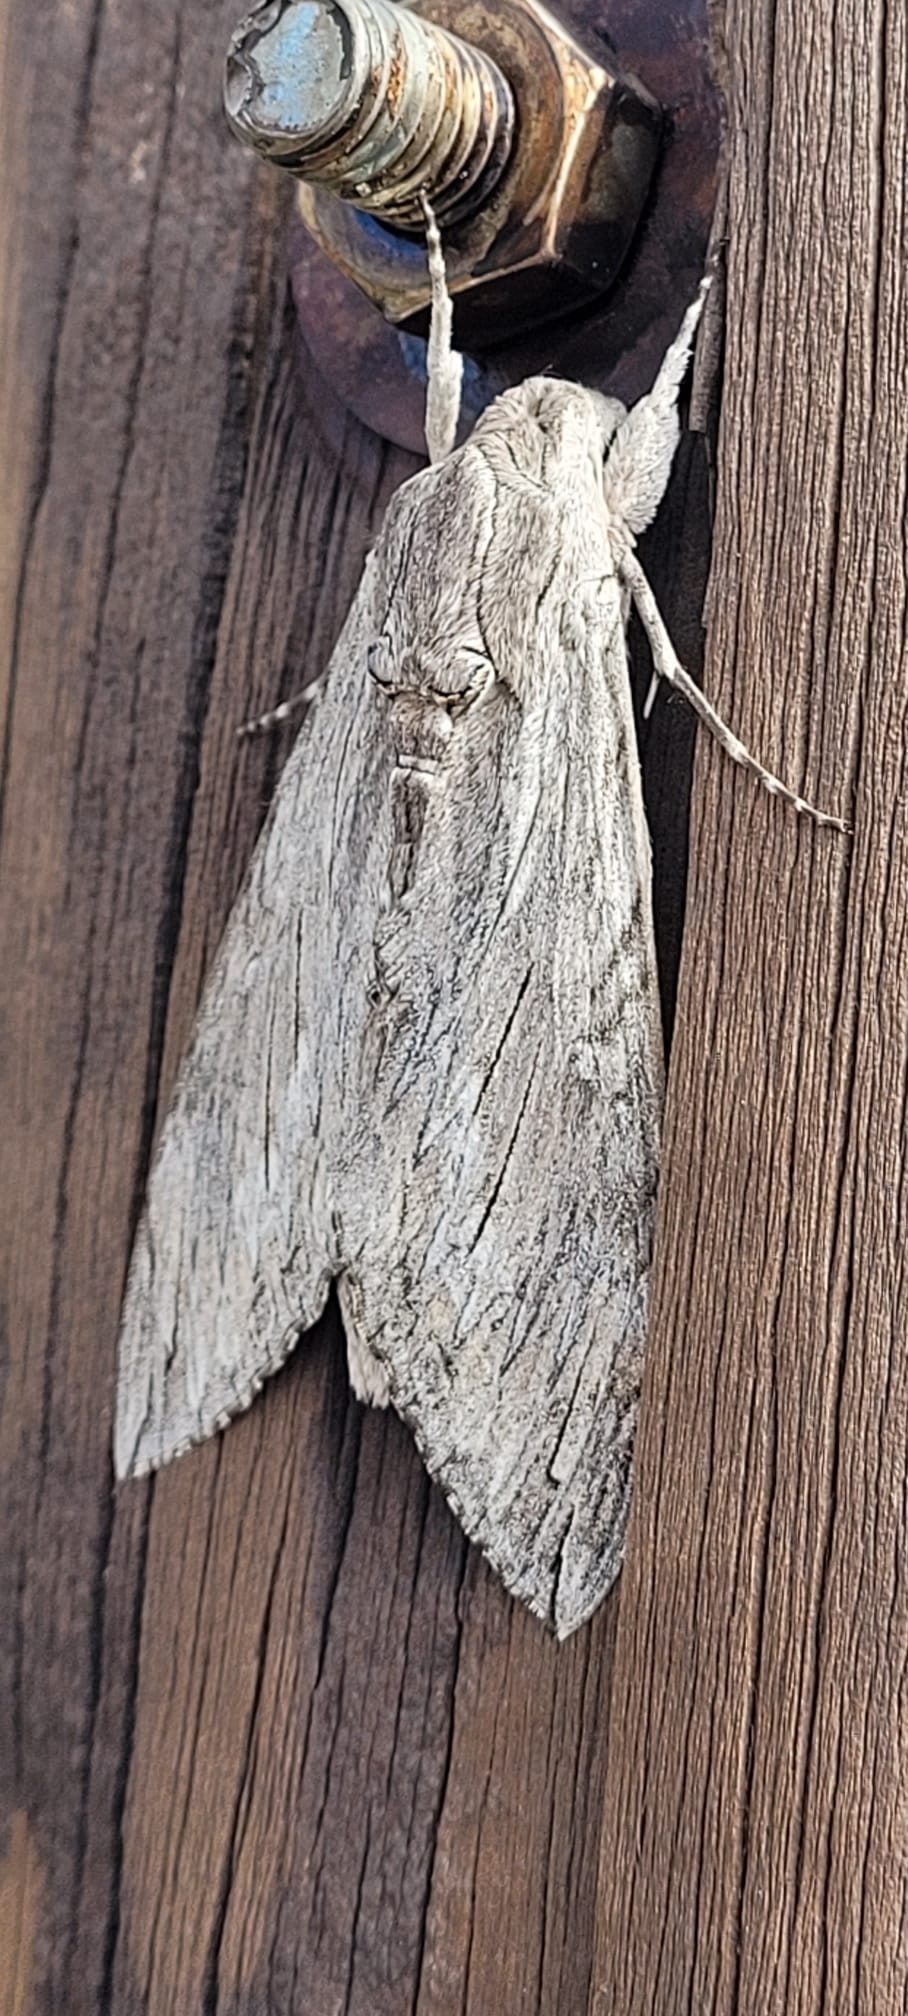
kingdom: Animalia
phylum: Arthropoda
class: Insecta
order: Lepidoptera
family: Sphingidae
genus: Agrius
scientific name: Agrius convolvuli
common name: Convolvulus hawkmoth
